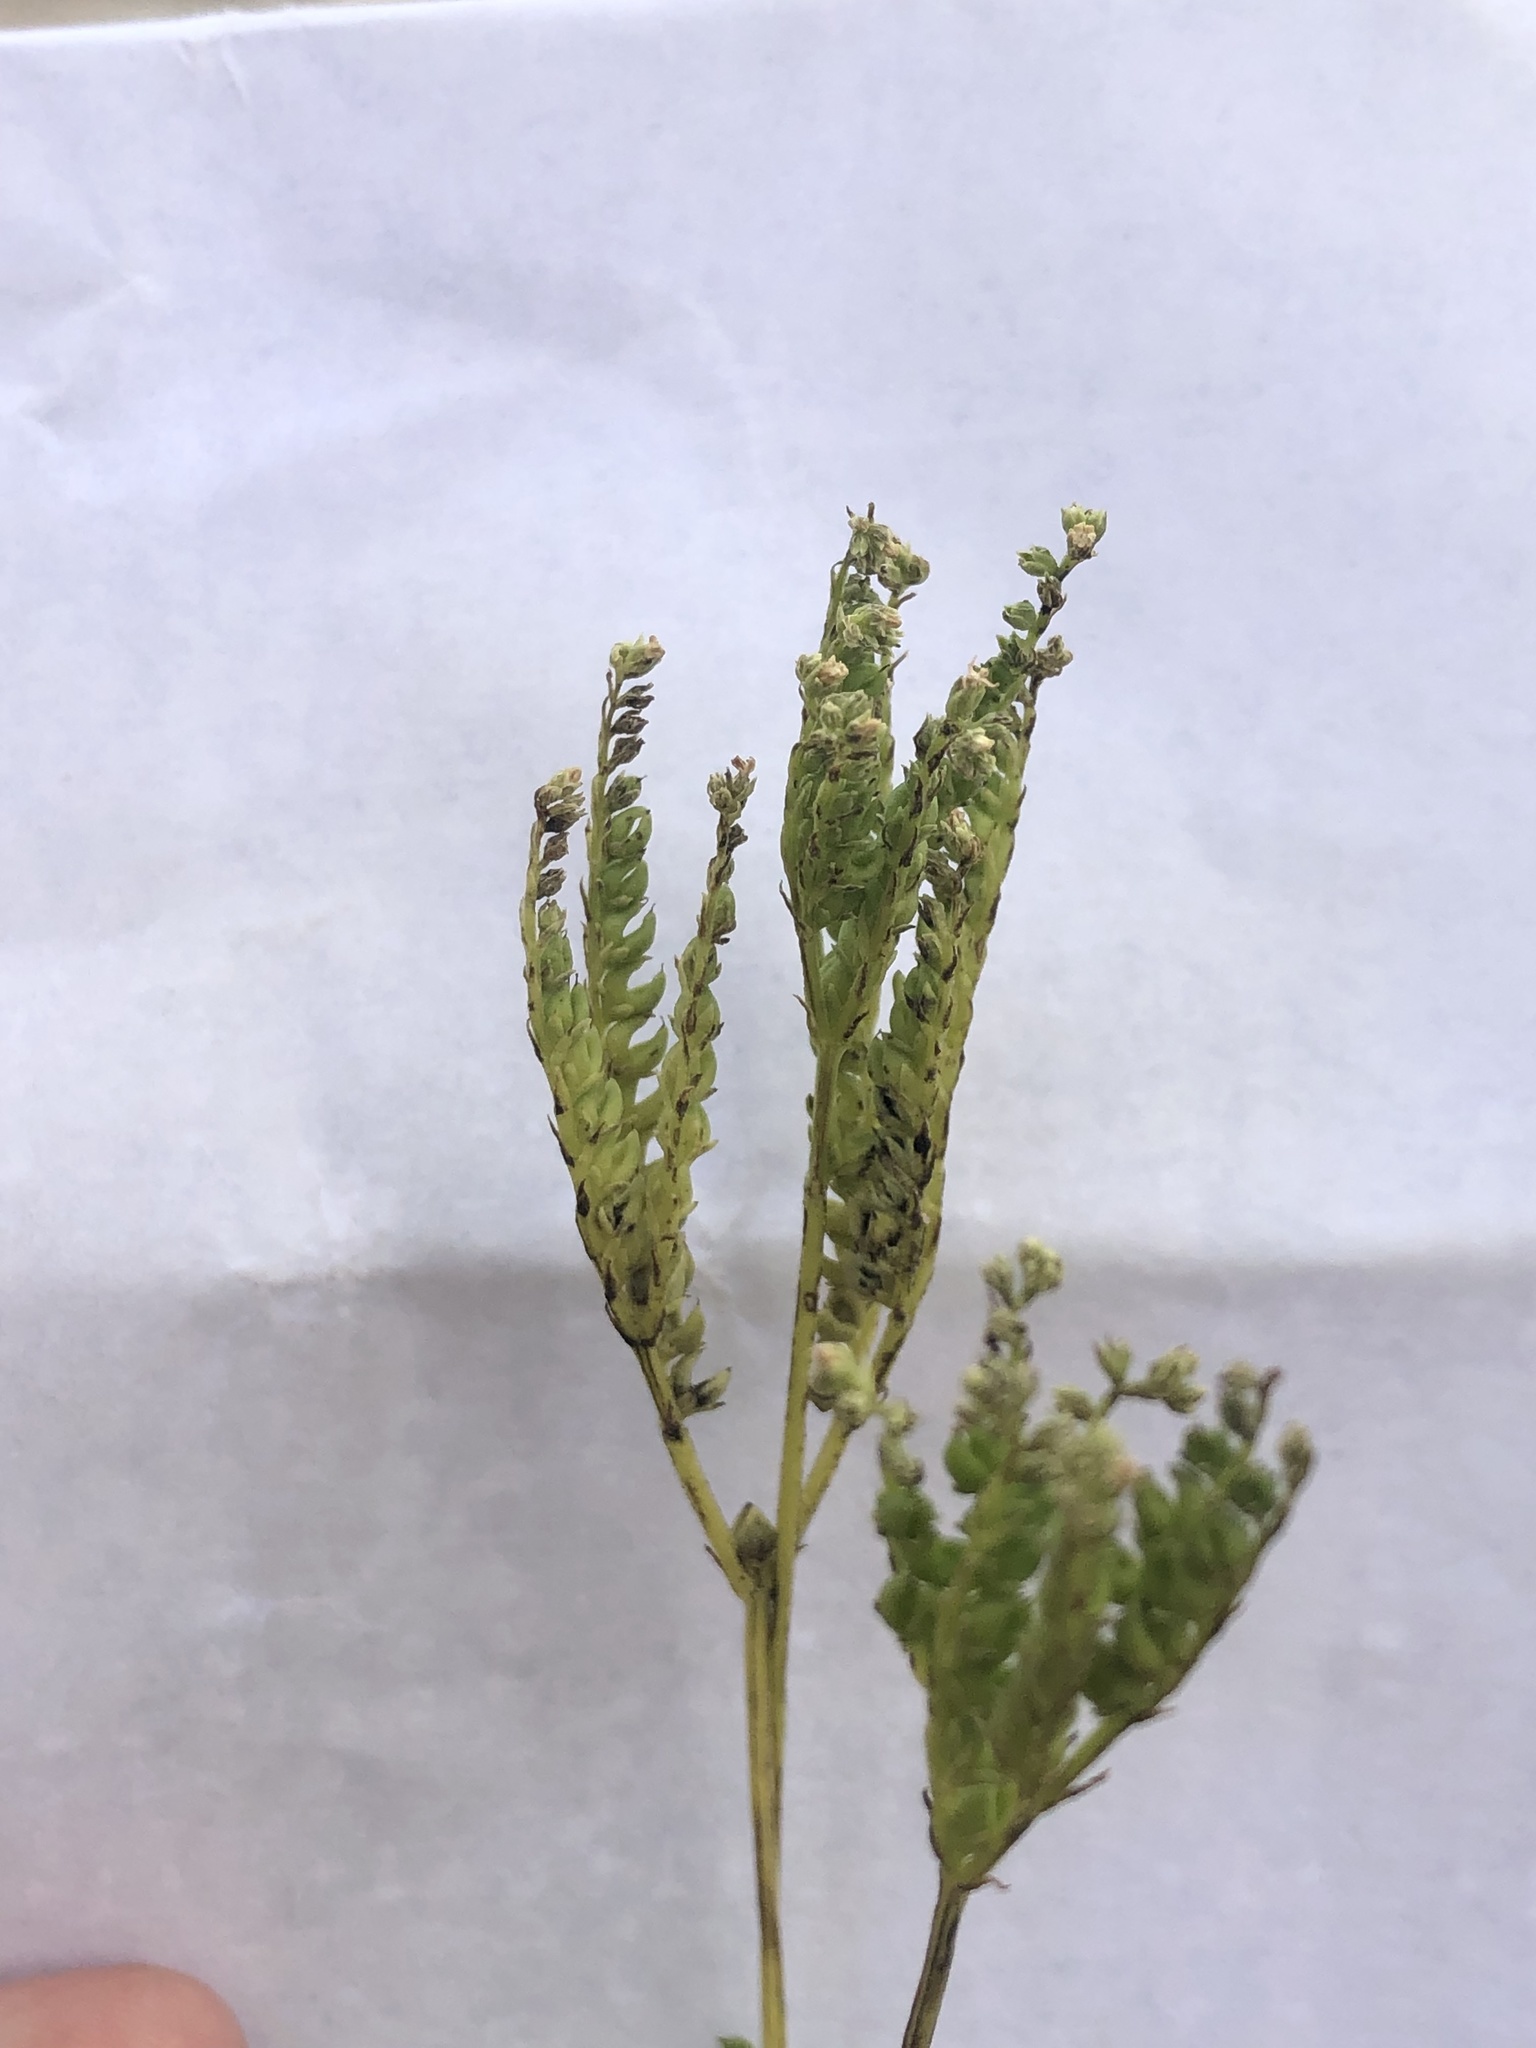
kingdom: Plantae
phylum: Tracheophyta
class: Magnoliopsida
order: Gentianales
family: Loganiaceae
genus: Mitreola
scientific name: Mitreola petiolata
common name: Lax hornpod
